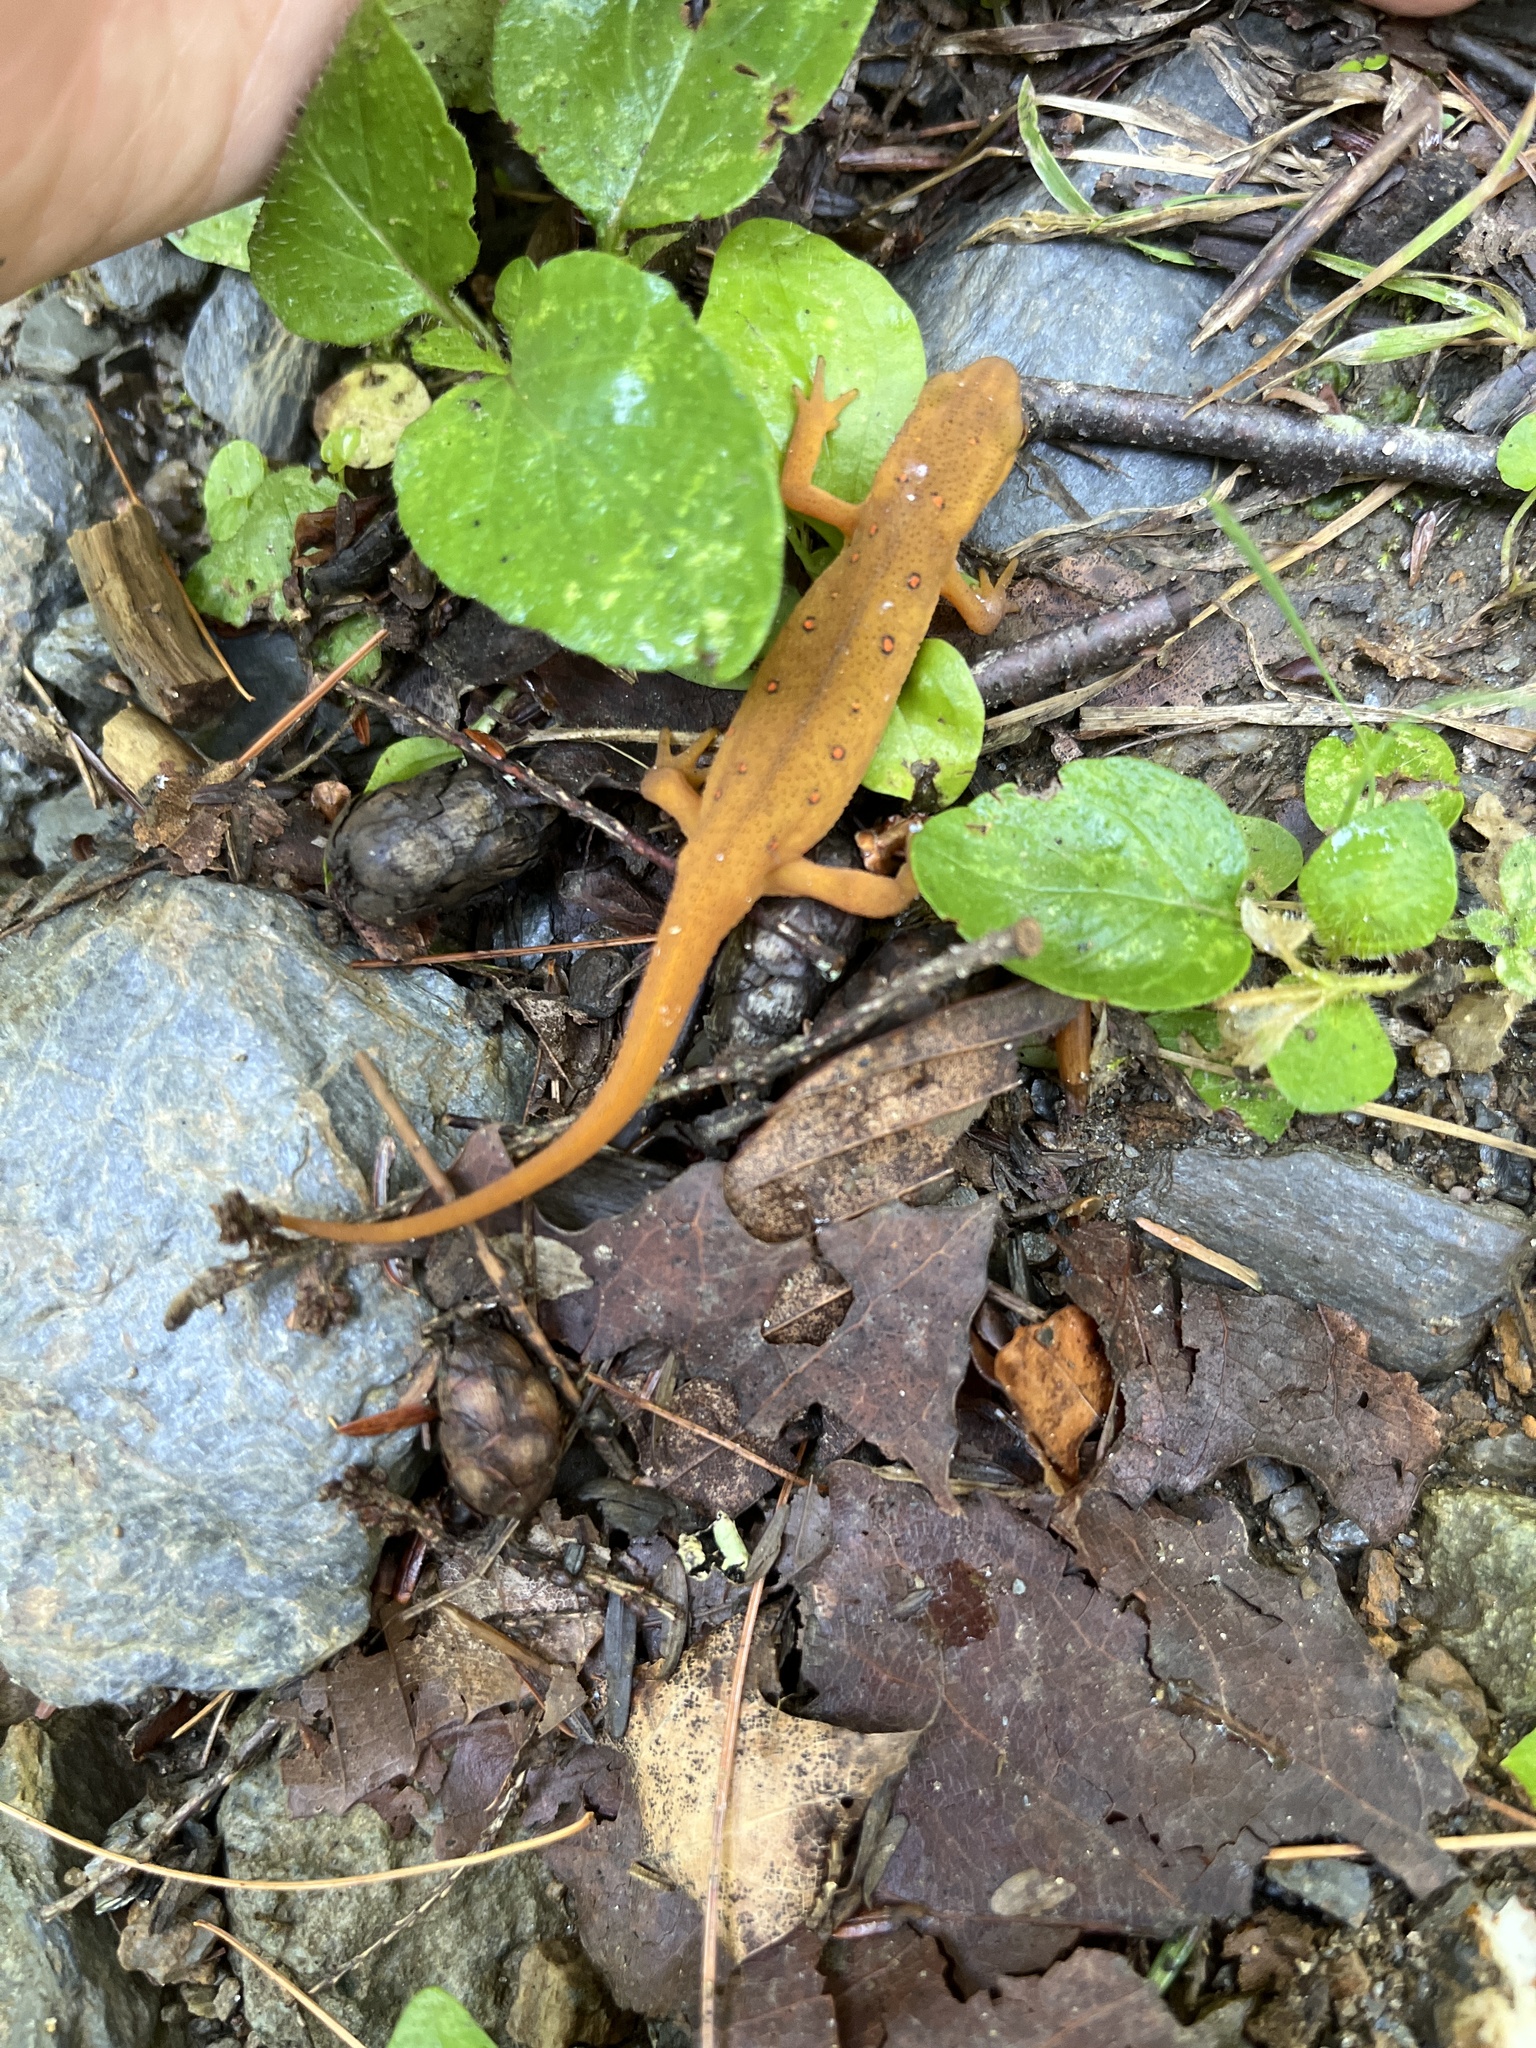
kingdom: Animalia
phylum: Chordata
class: Amphibia
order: Caudata
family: Salamandridae
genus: Notophthalmus
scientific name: Notophthalmus viridescens
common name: Eastern newt
